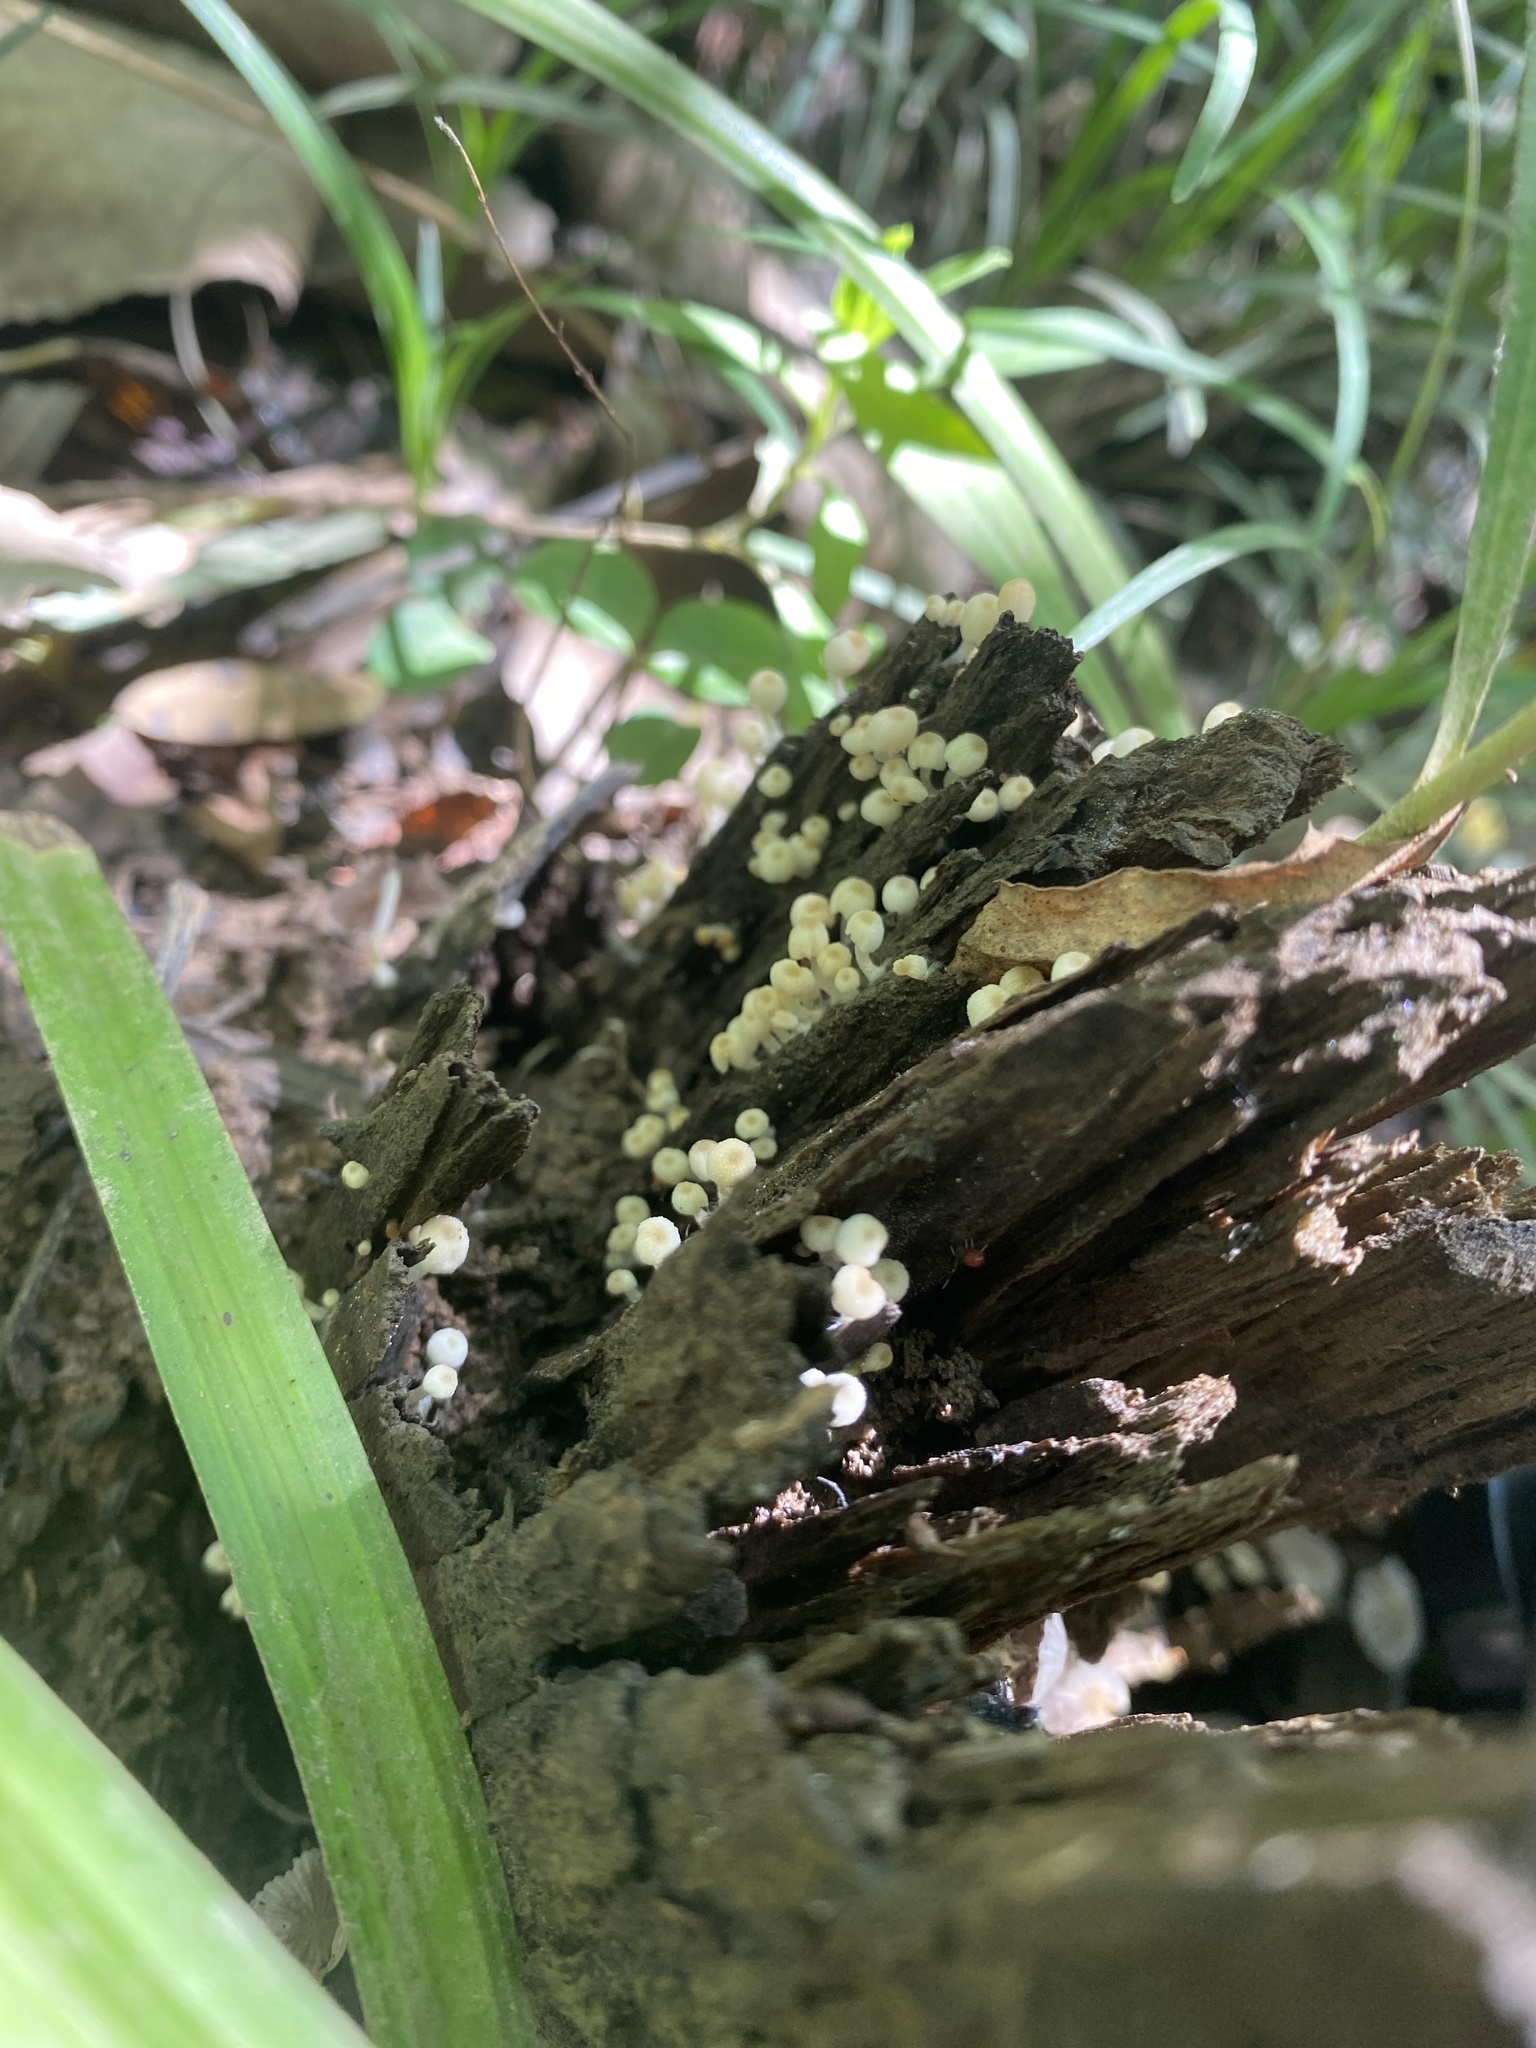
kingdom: Fungi
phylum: Basidiomycota
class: Agaricomycetes
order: Agaricales
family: Psathyrellaceae
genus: Coprinellus
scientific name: Coprinellus disseminatus
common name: Fairies' bonnets
